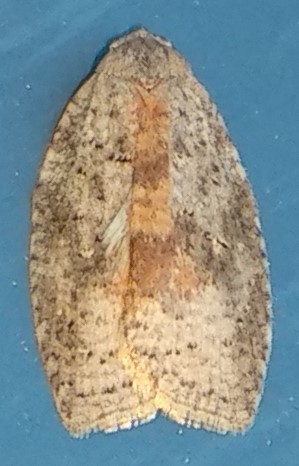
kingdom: Animalia
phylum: Arthropoda
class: Insecta
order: Lepidoptera
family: Tortricidae
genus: Amorbia
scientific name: Amorbia humerosana
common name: White-lined leafroller moth
